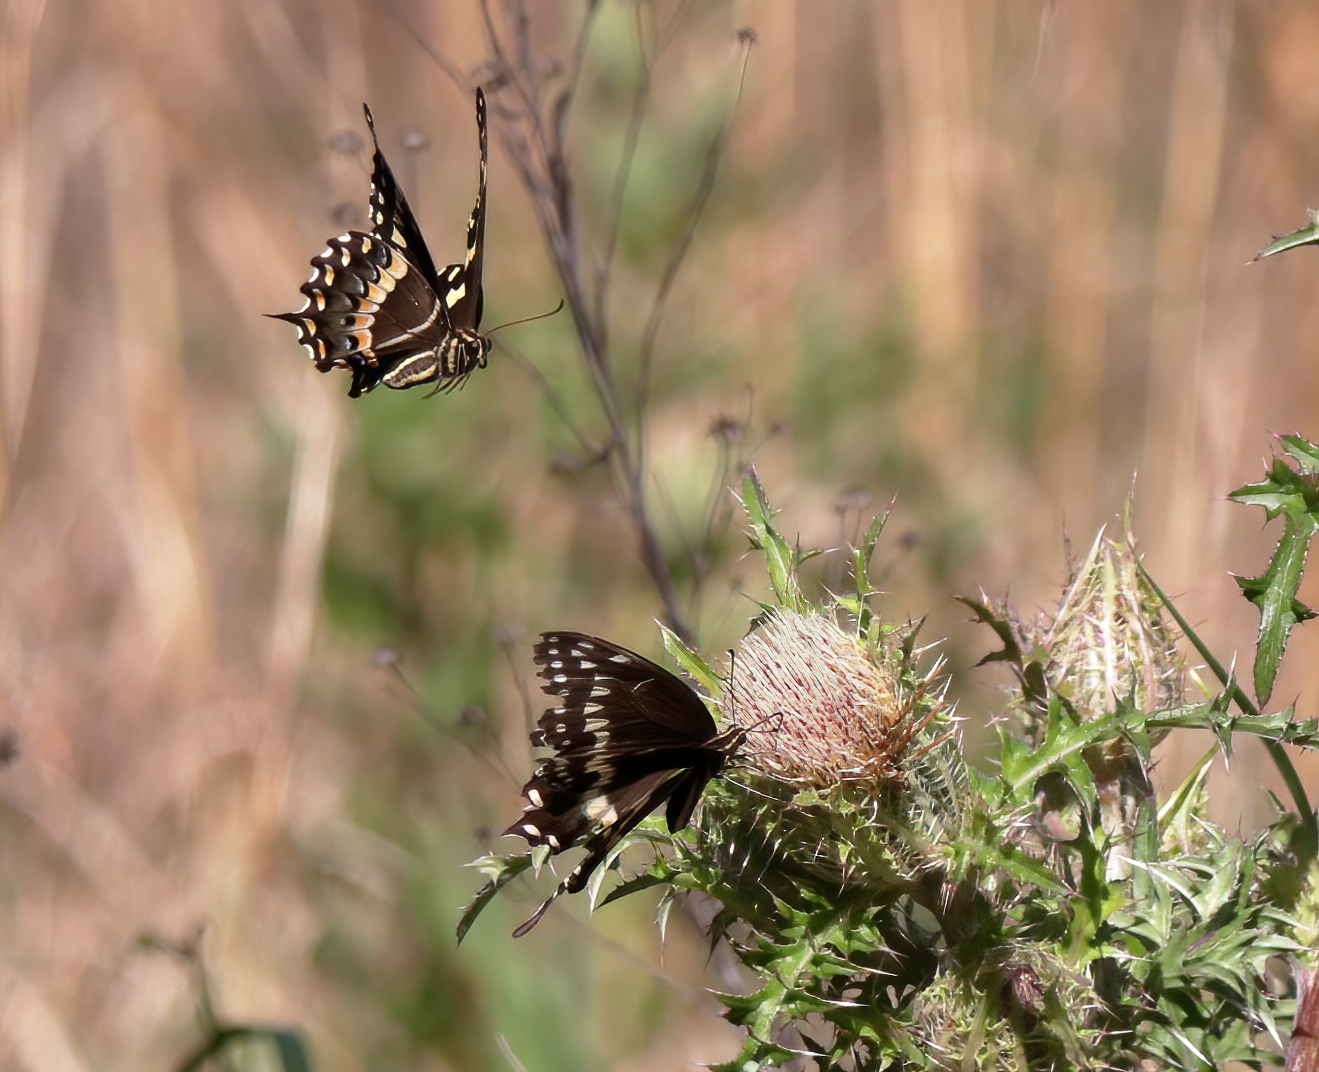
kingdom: Animalia
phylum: Arthropoda
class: Insecta
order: Lepidoptera
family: Papilionidae
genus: Papilio
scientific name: Papilio palamedes
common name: Palamedes swallowtail
